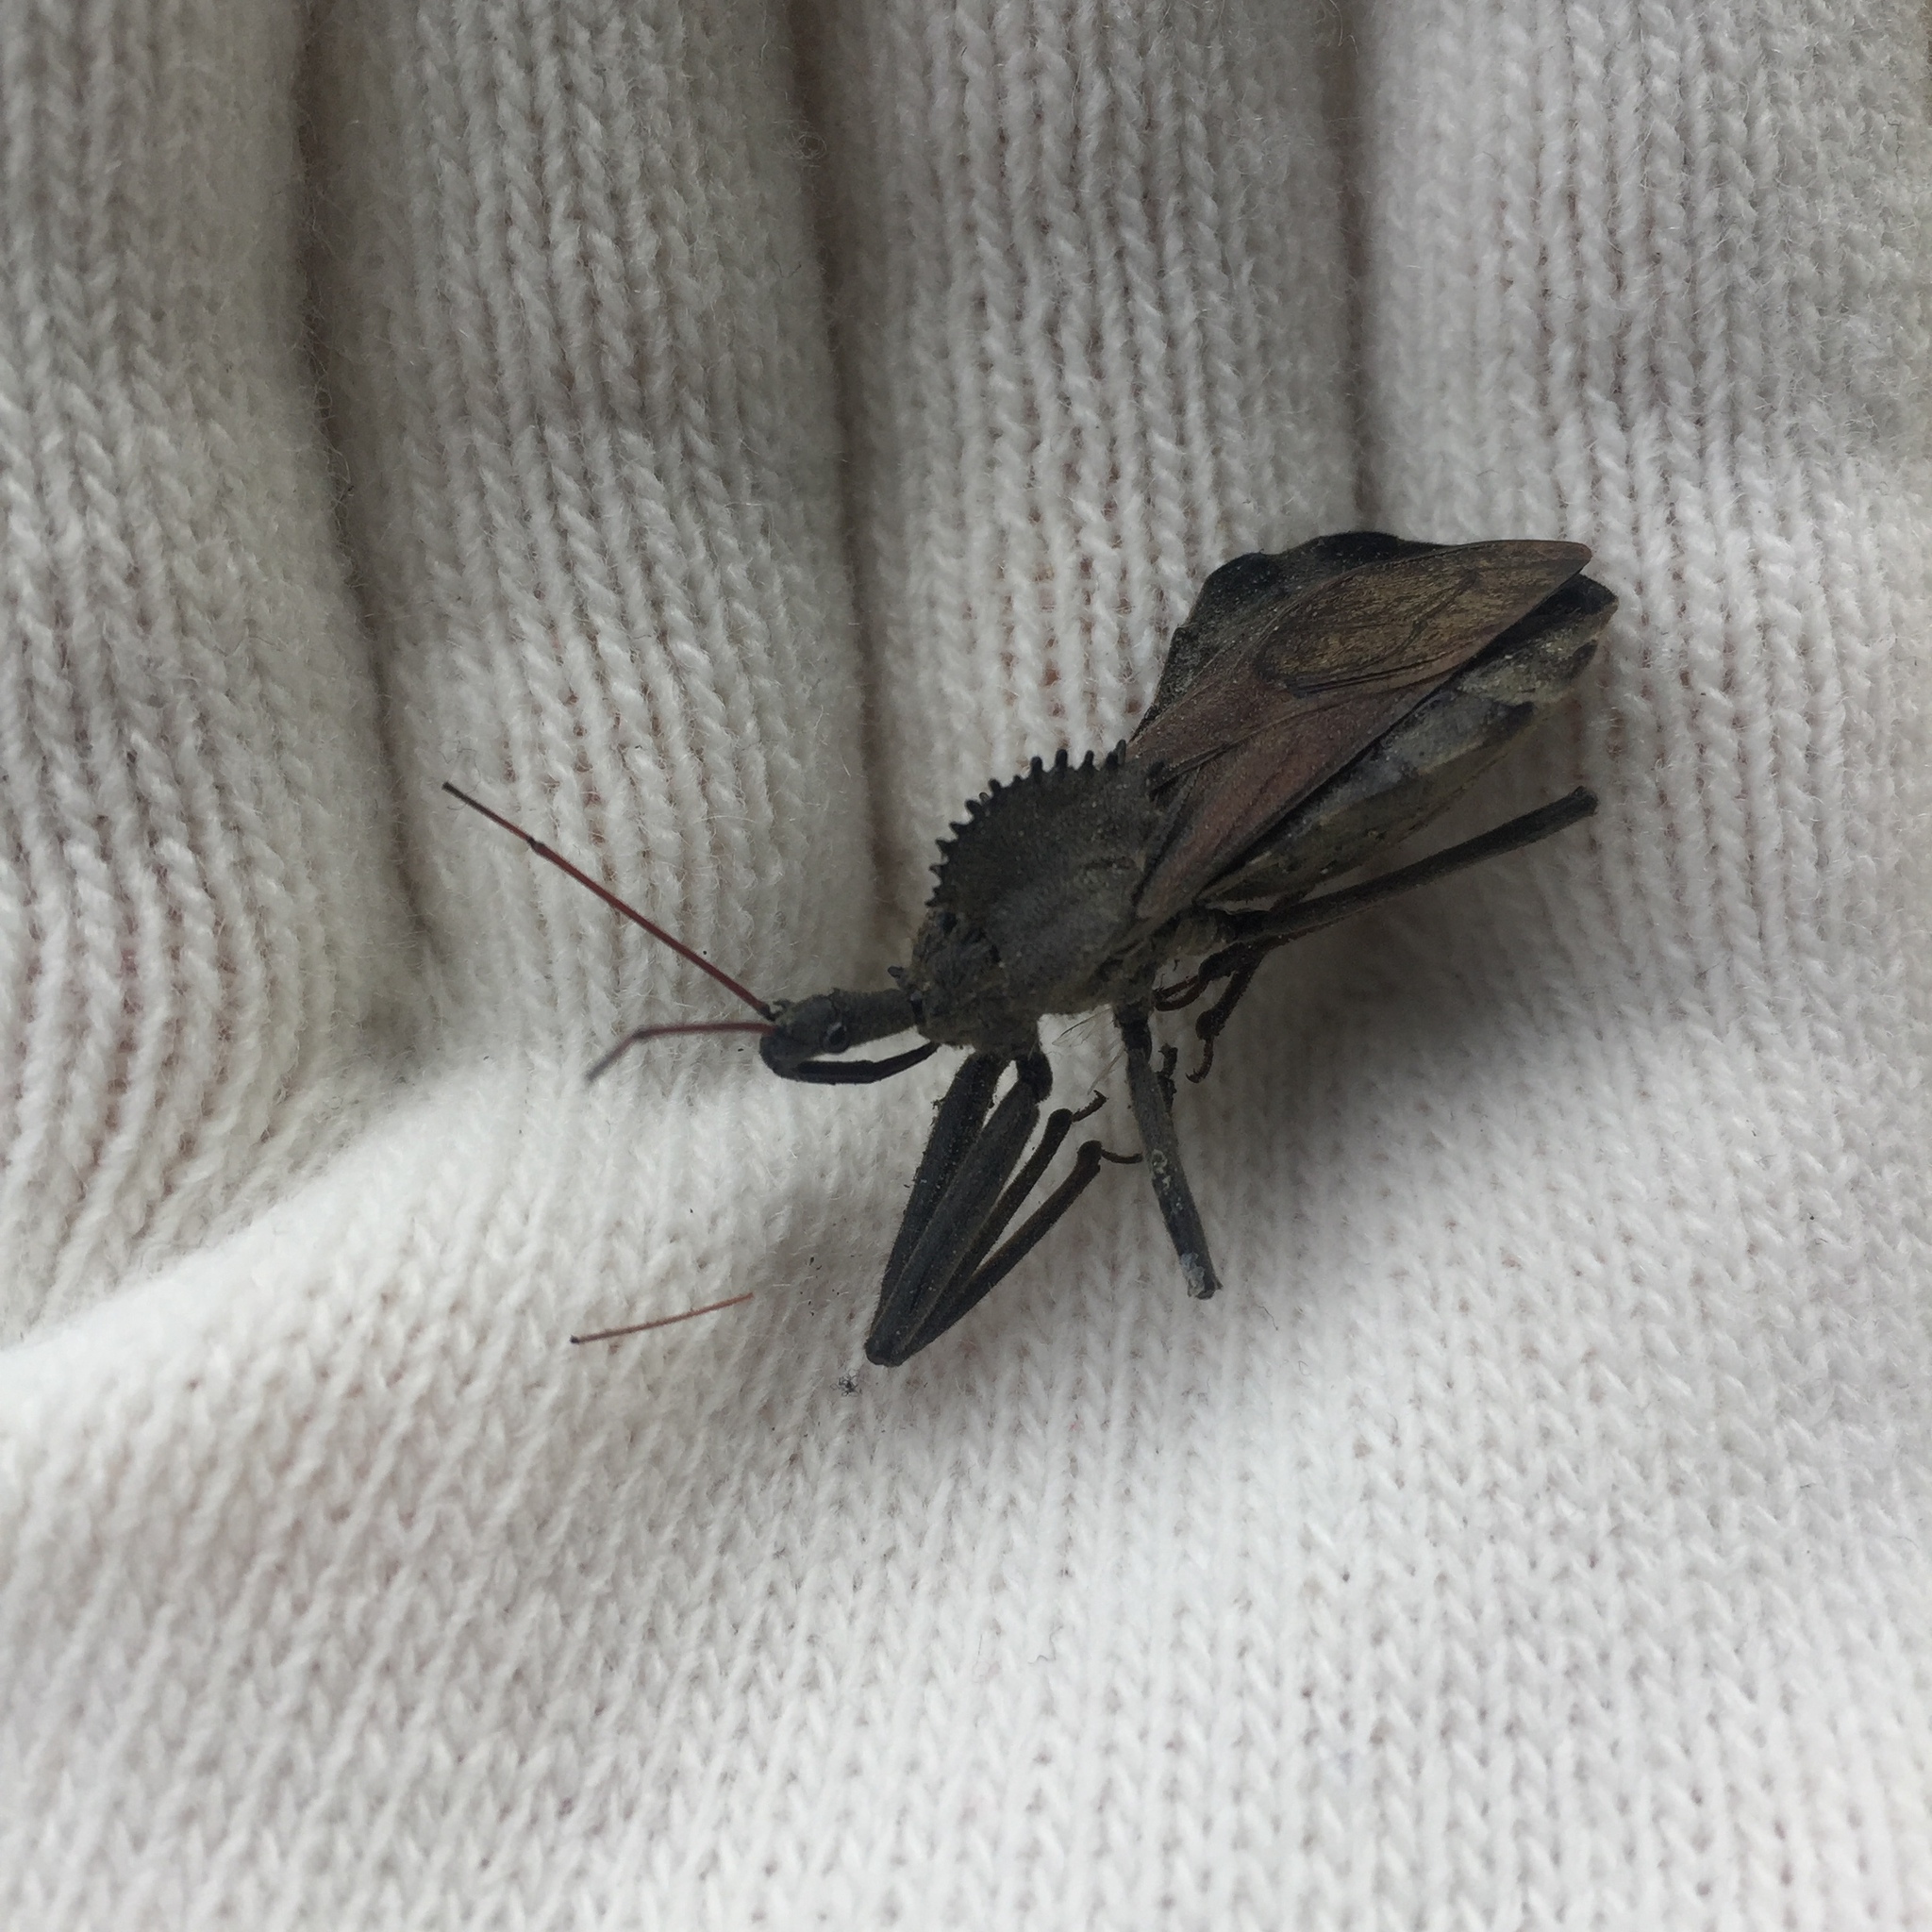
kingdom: Animalia
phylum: Arthropoda
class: Insecta
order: Hemiptera
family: Reduviidae
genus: Arilus
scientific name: Arilus cristatus
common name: North american wheel bug
